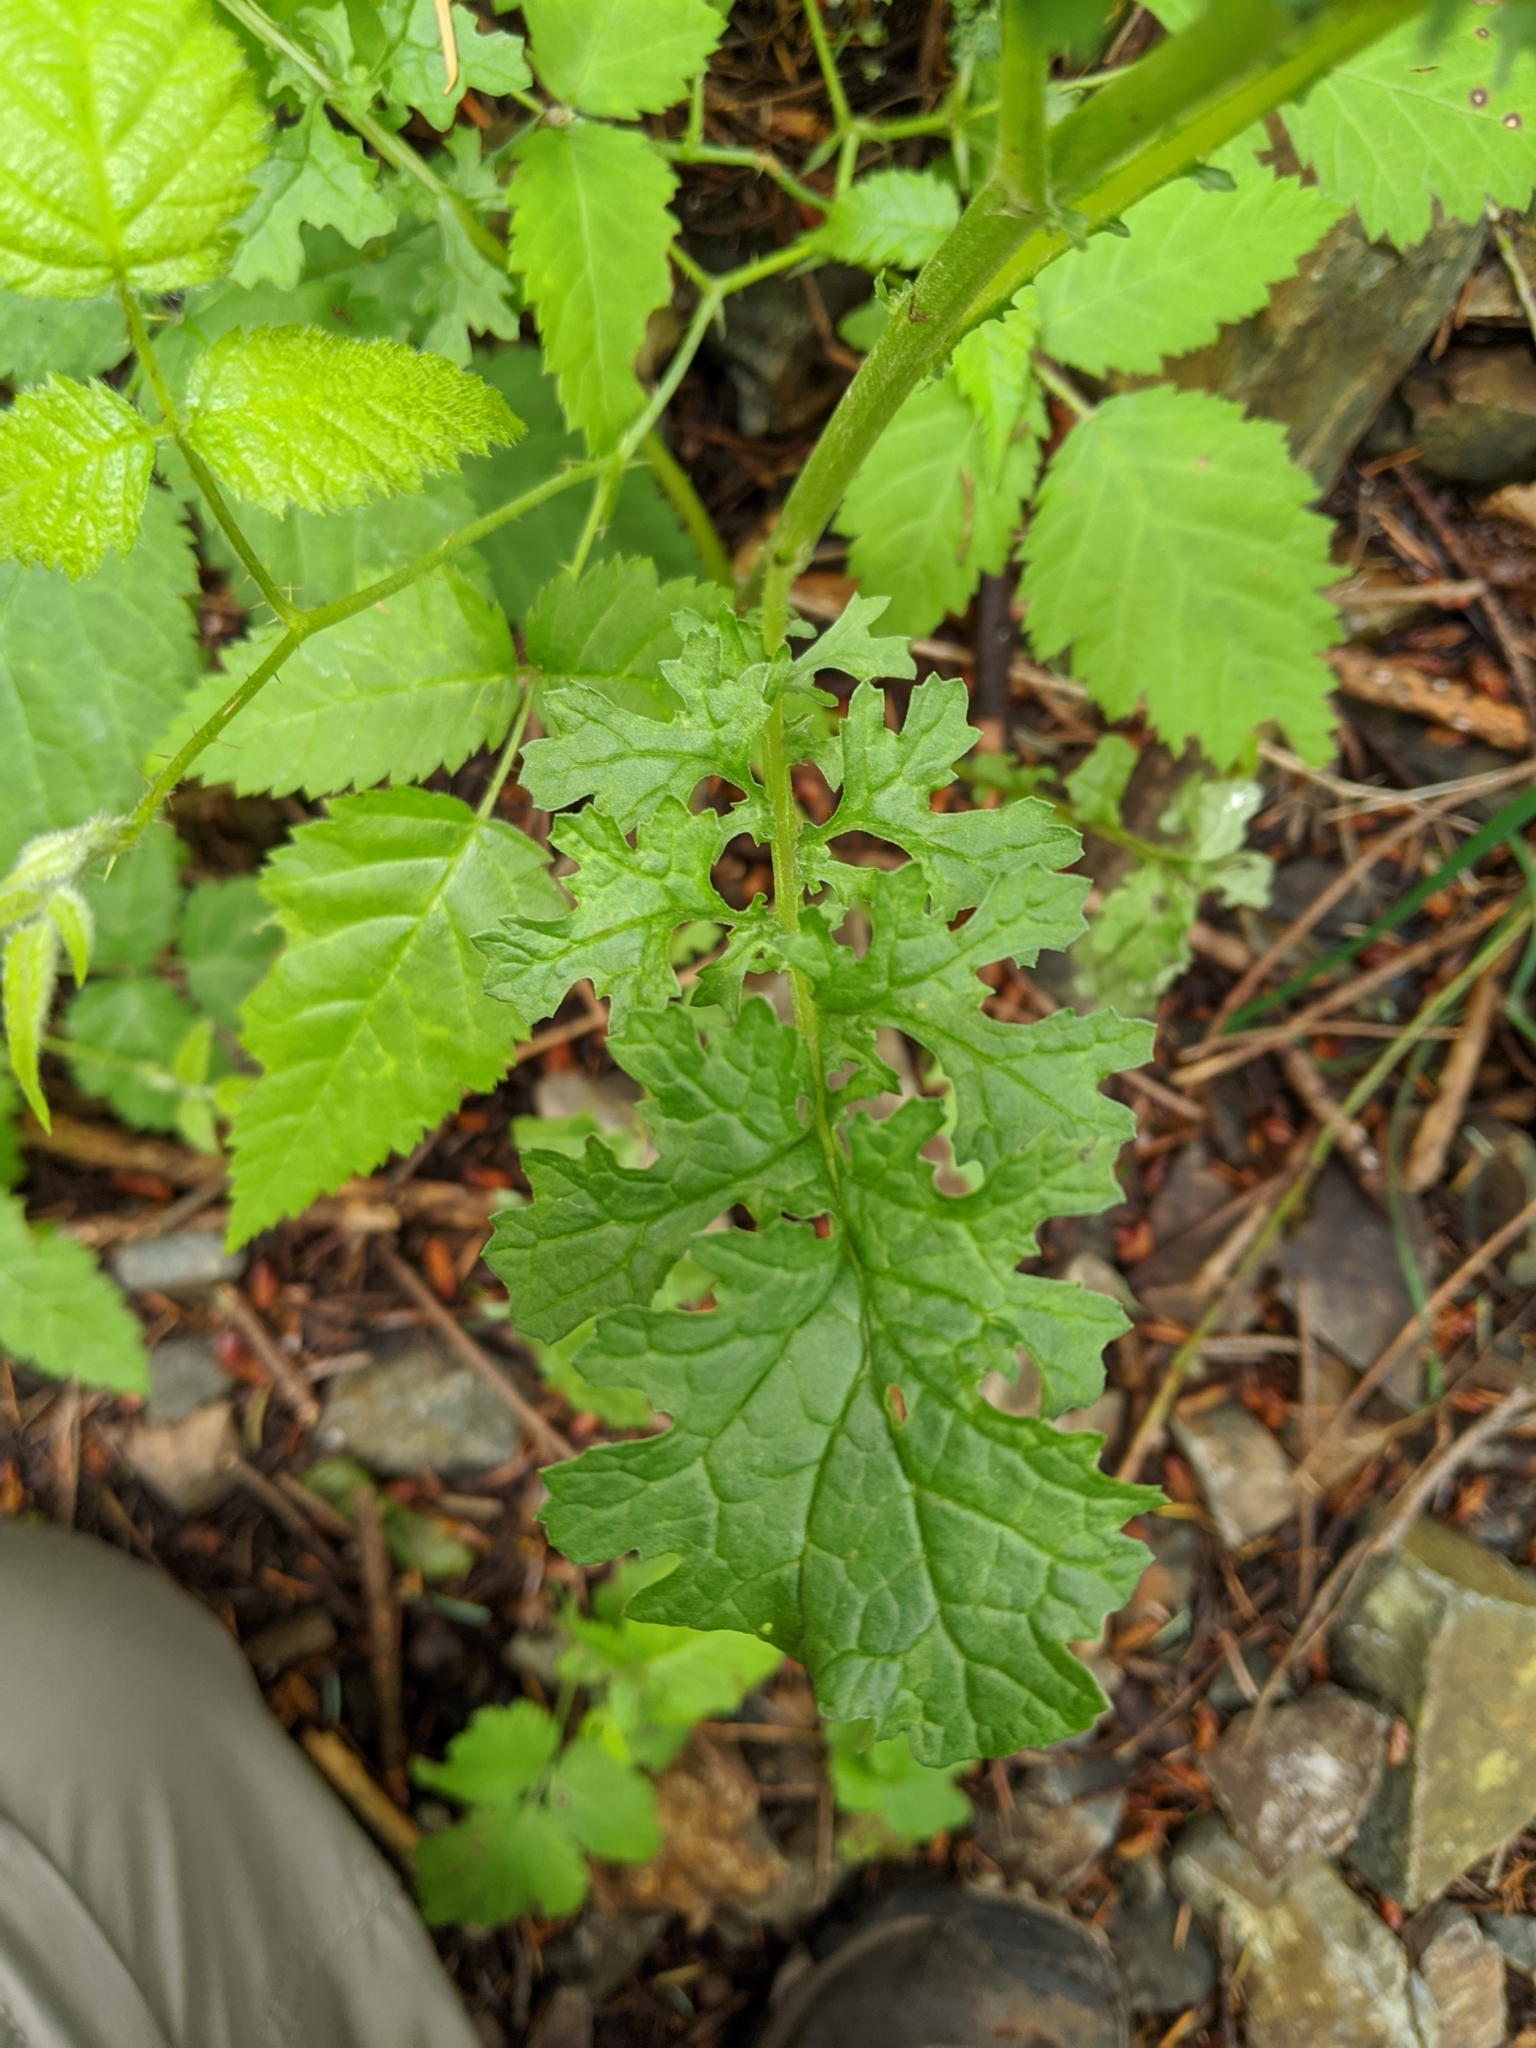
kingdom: Plantae
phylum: Tracheophyta
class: Magnoliopsida
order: Asterales
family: Asteraceae
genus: Jacobaea
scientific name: Jacobaea vulgaris
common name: Stinking willie
